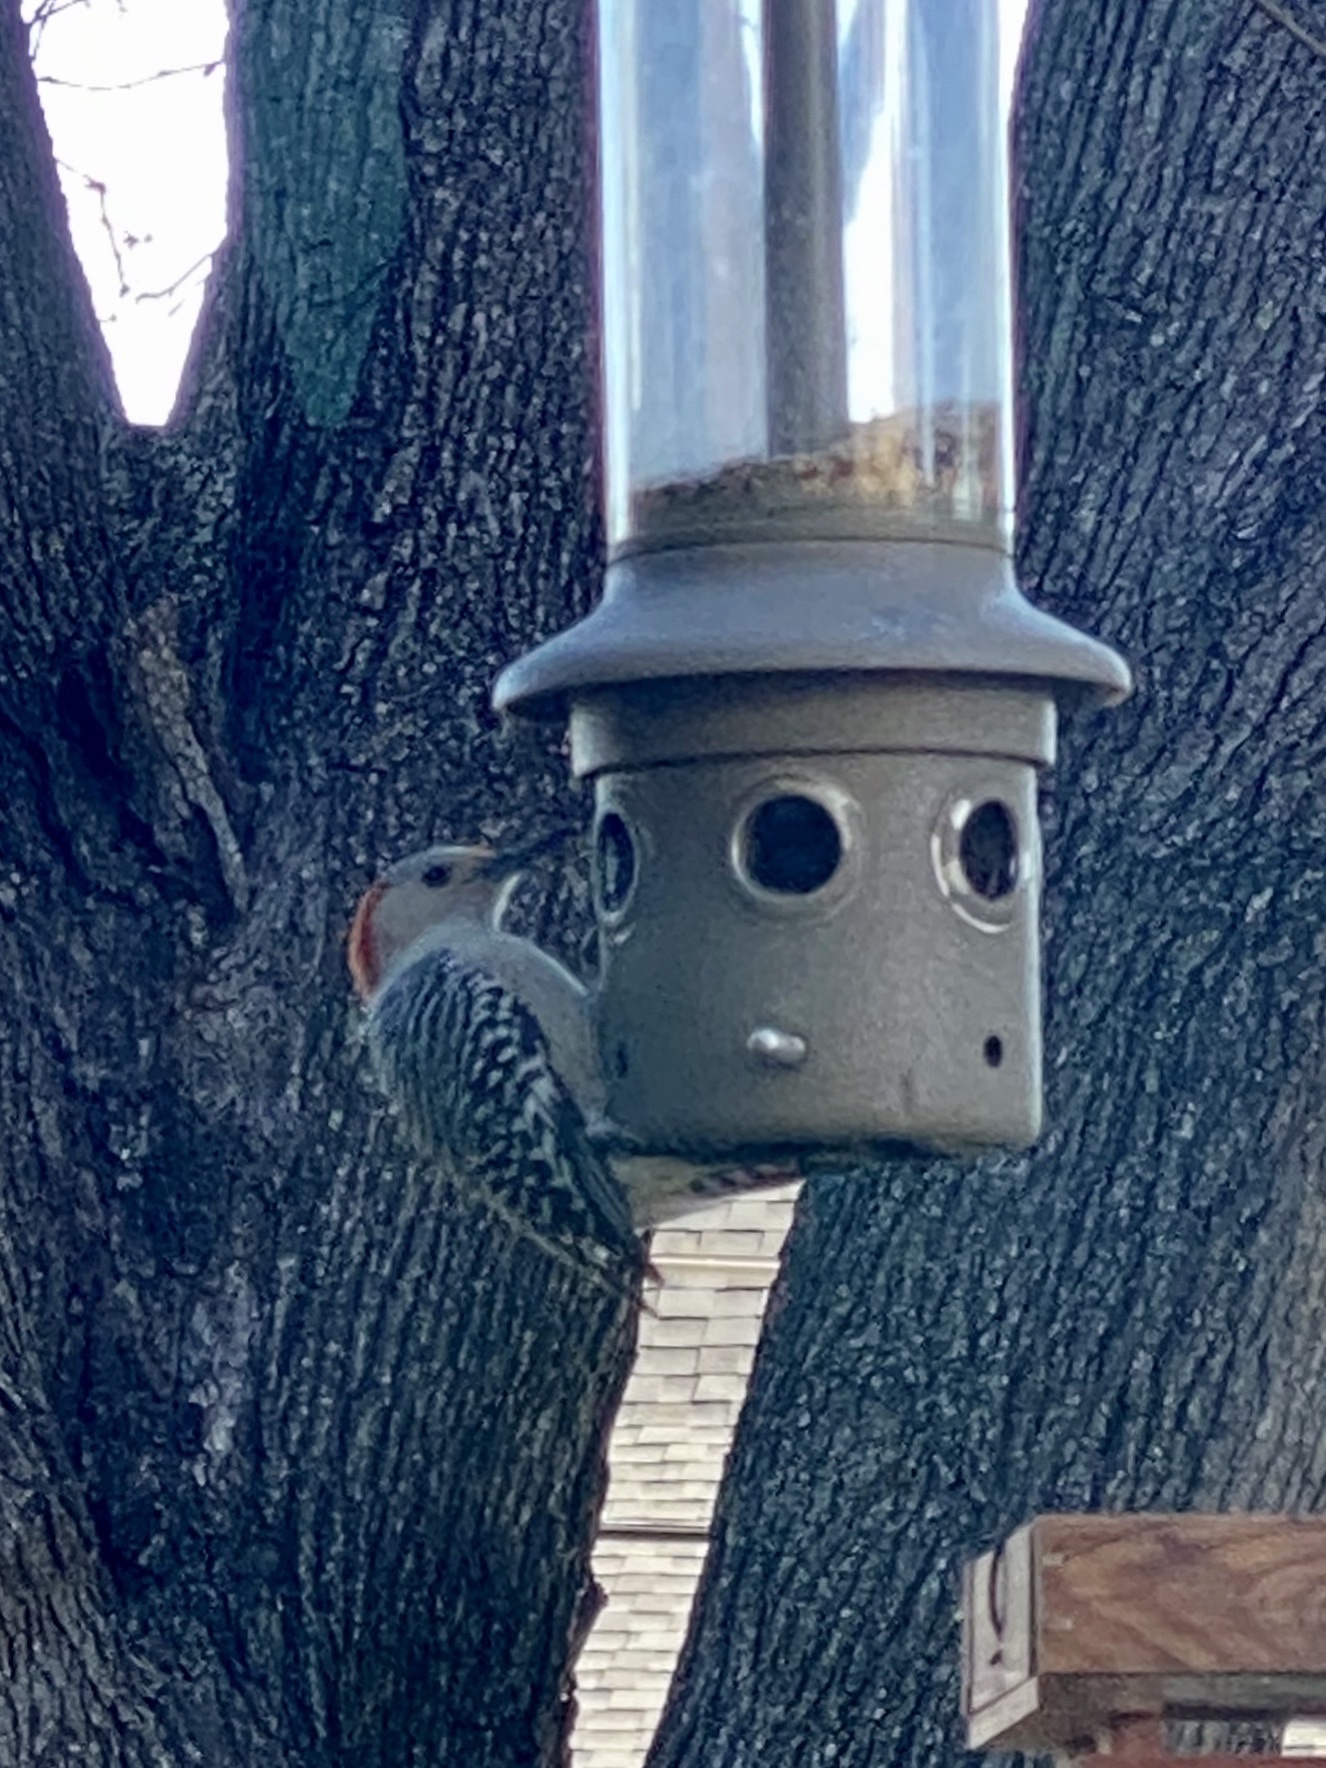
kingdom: Animalia
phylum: Chordata
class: Aves
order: Piciformes
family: Picidae
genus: Melanerpes
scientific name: Melanerpes carolinus
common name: Red-bellied woodpecker
